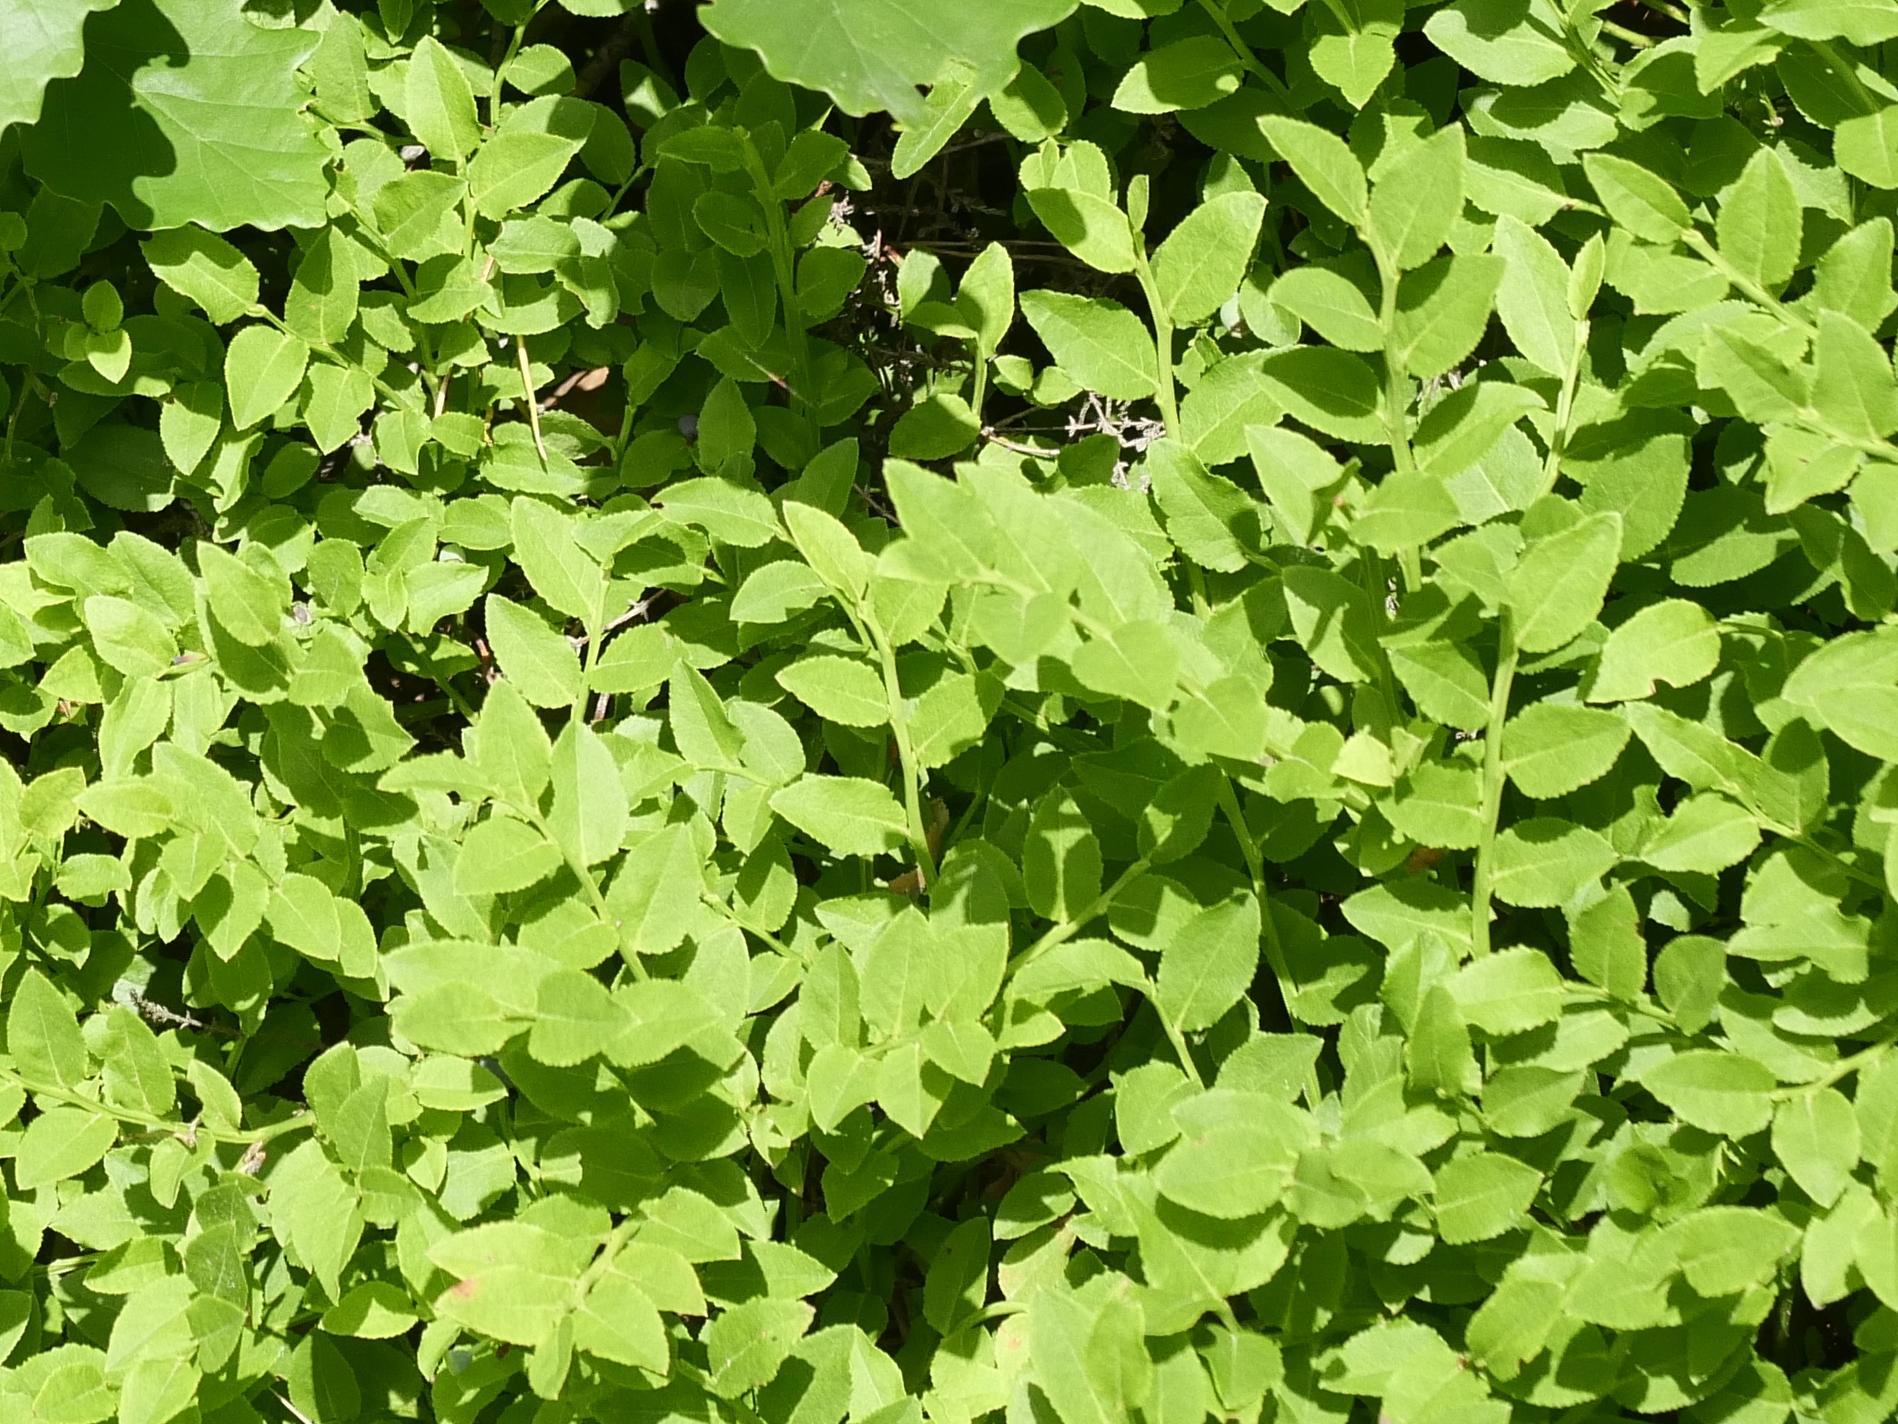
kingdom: Plantae
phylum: Tracheophyta
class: Magnoliopsida
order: Ericales
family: Ericaceae
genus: Vaccinium
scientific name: Vaccinium myrtillus
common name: Bilberry
